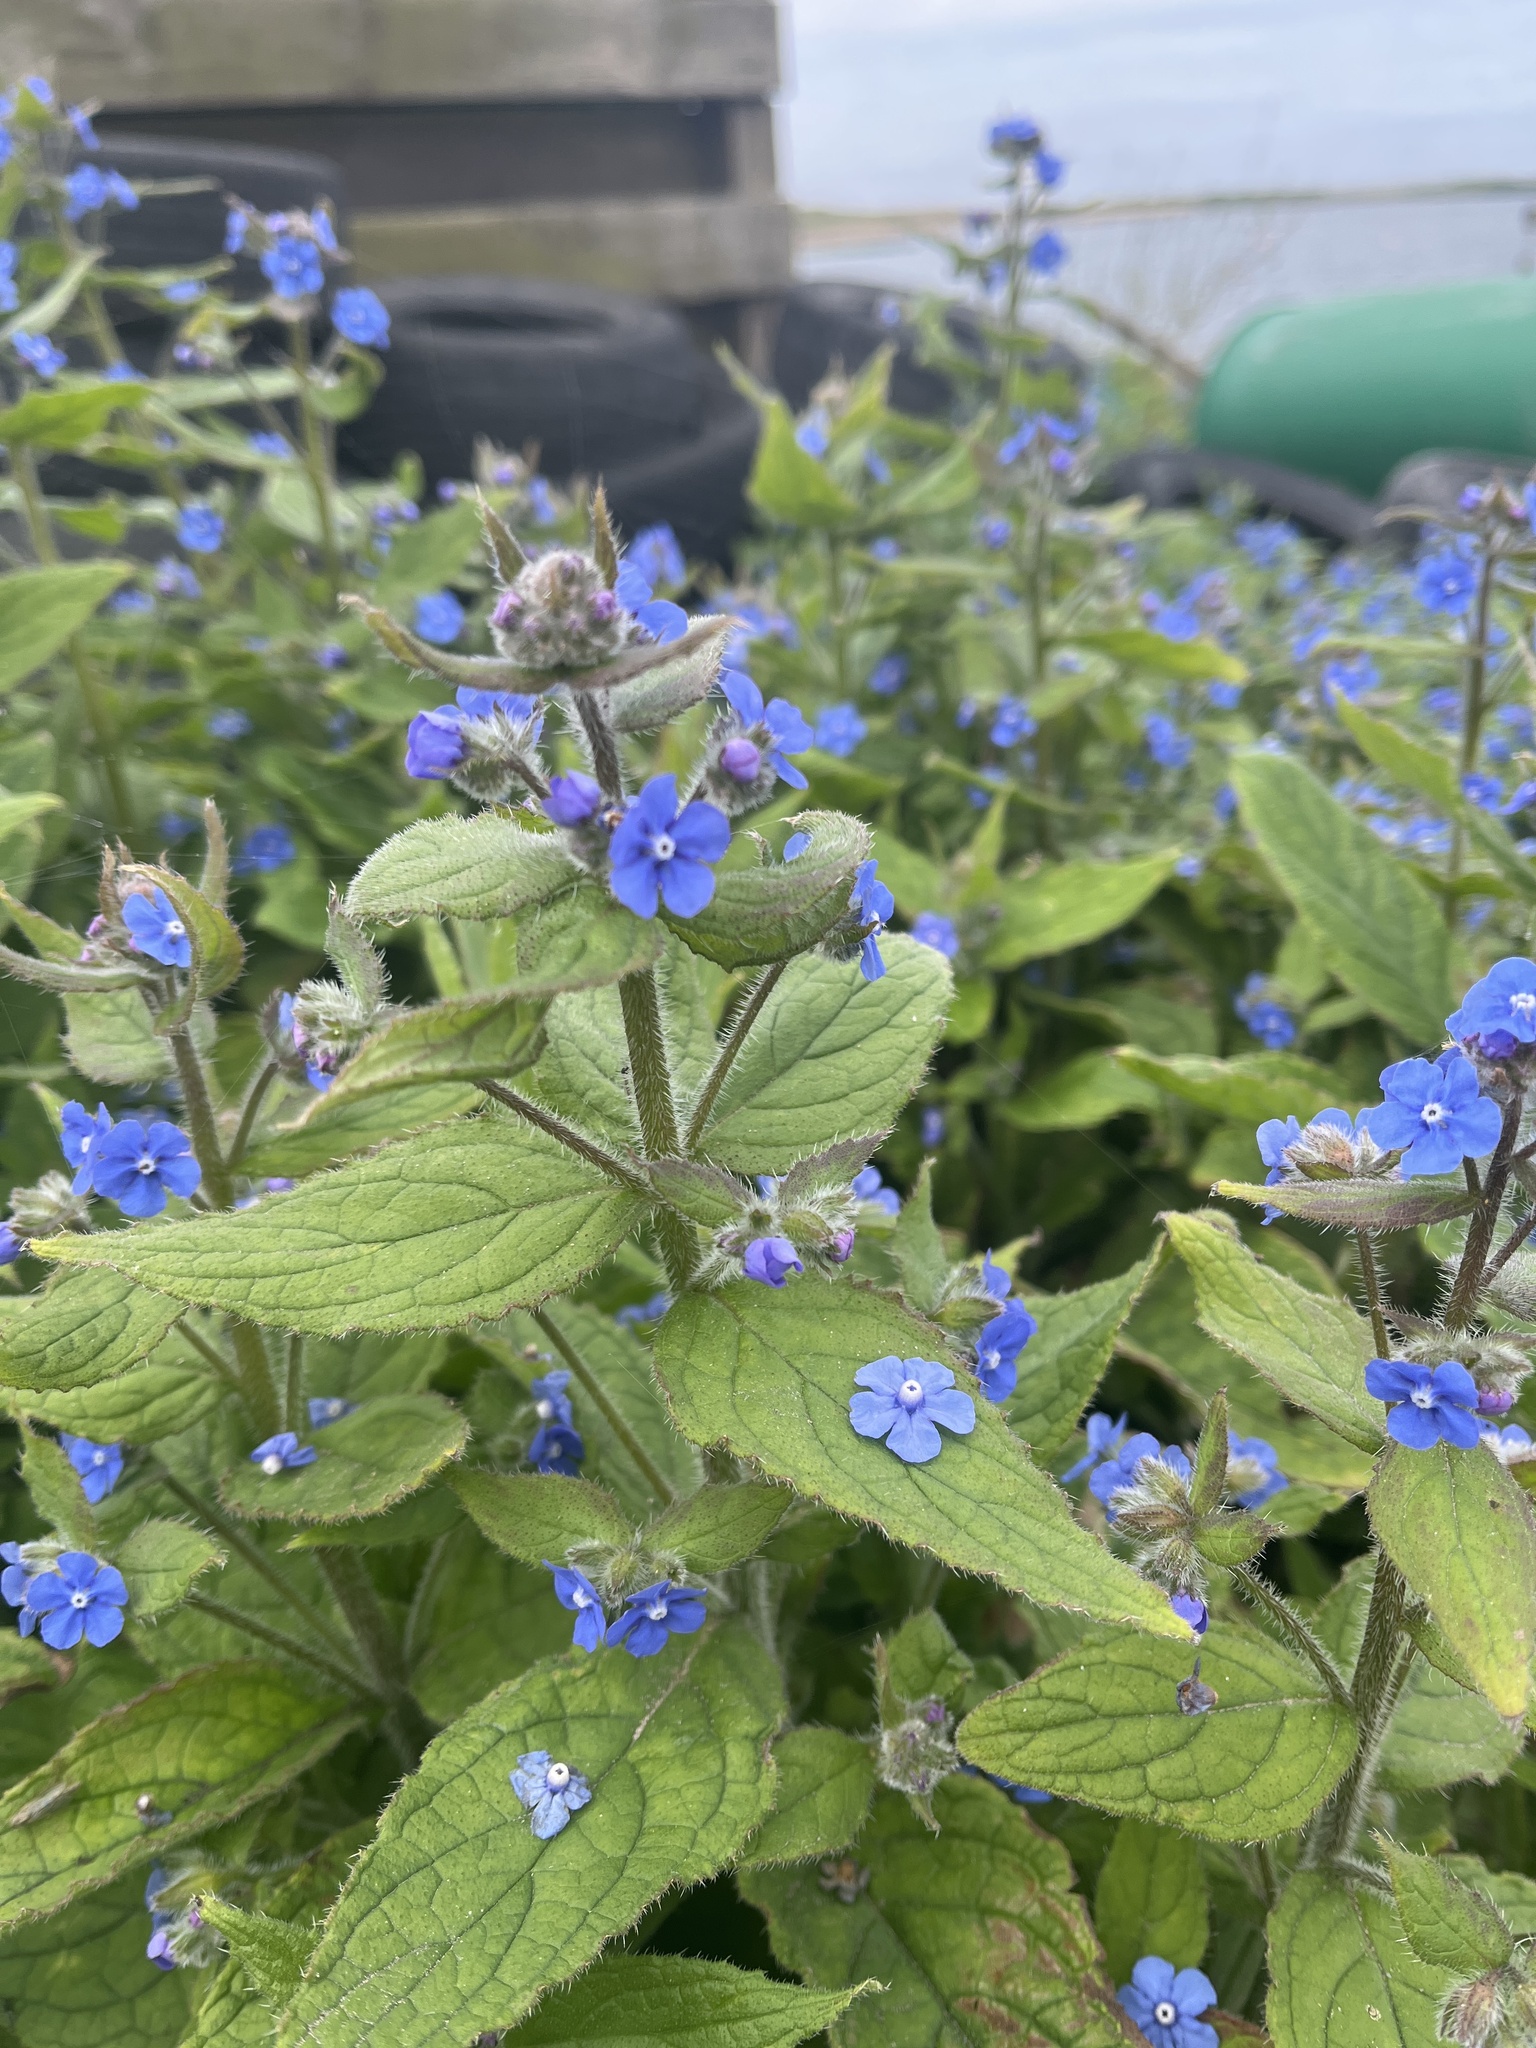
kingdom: Plantae
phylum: Tracheophyta
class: Magnoliopsida
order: Boraginales
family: Boraginaceae
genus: Pentaglottis
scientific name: Pentaglottis sempervirens
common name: Green alkanet
